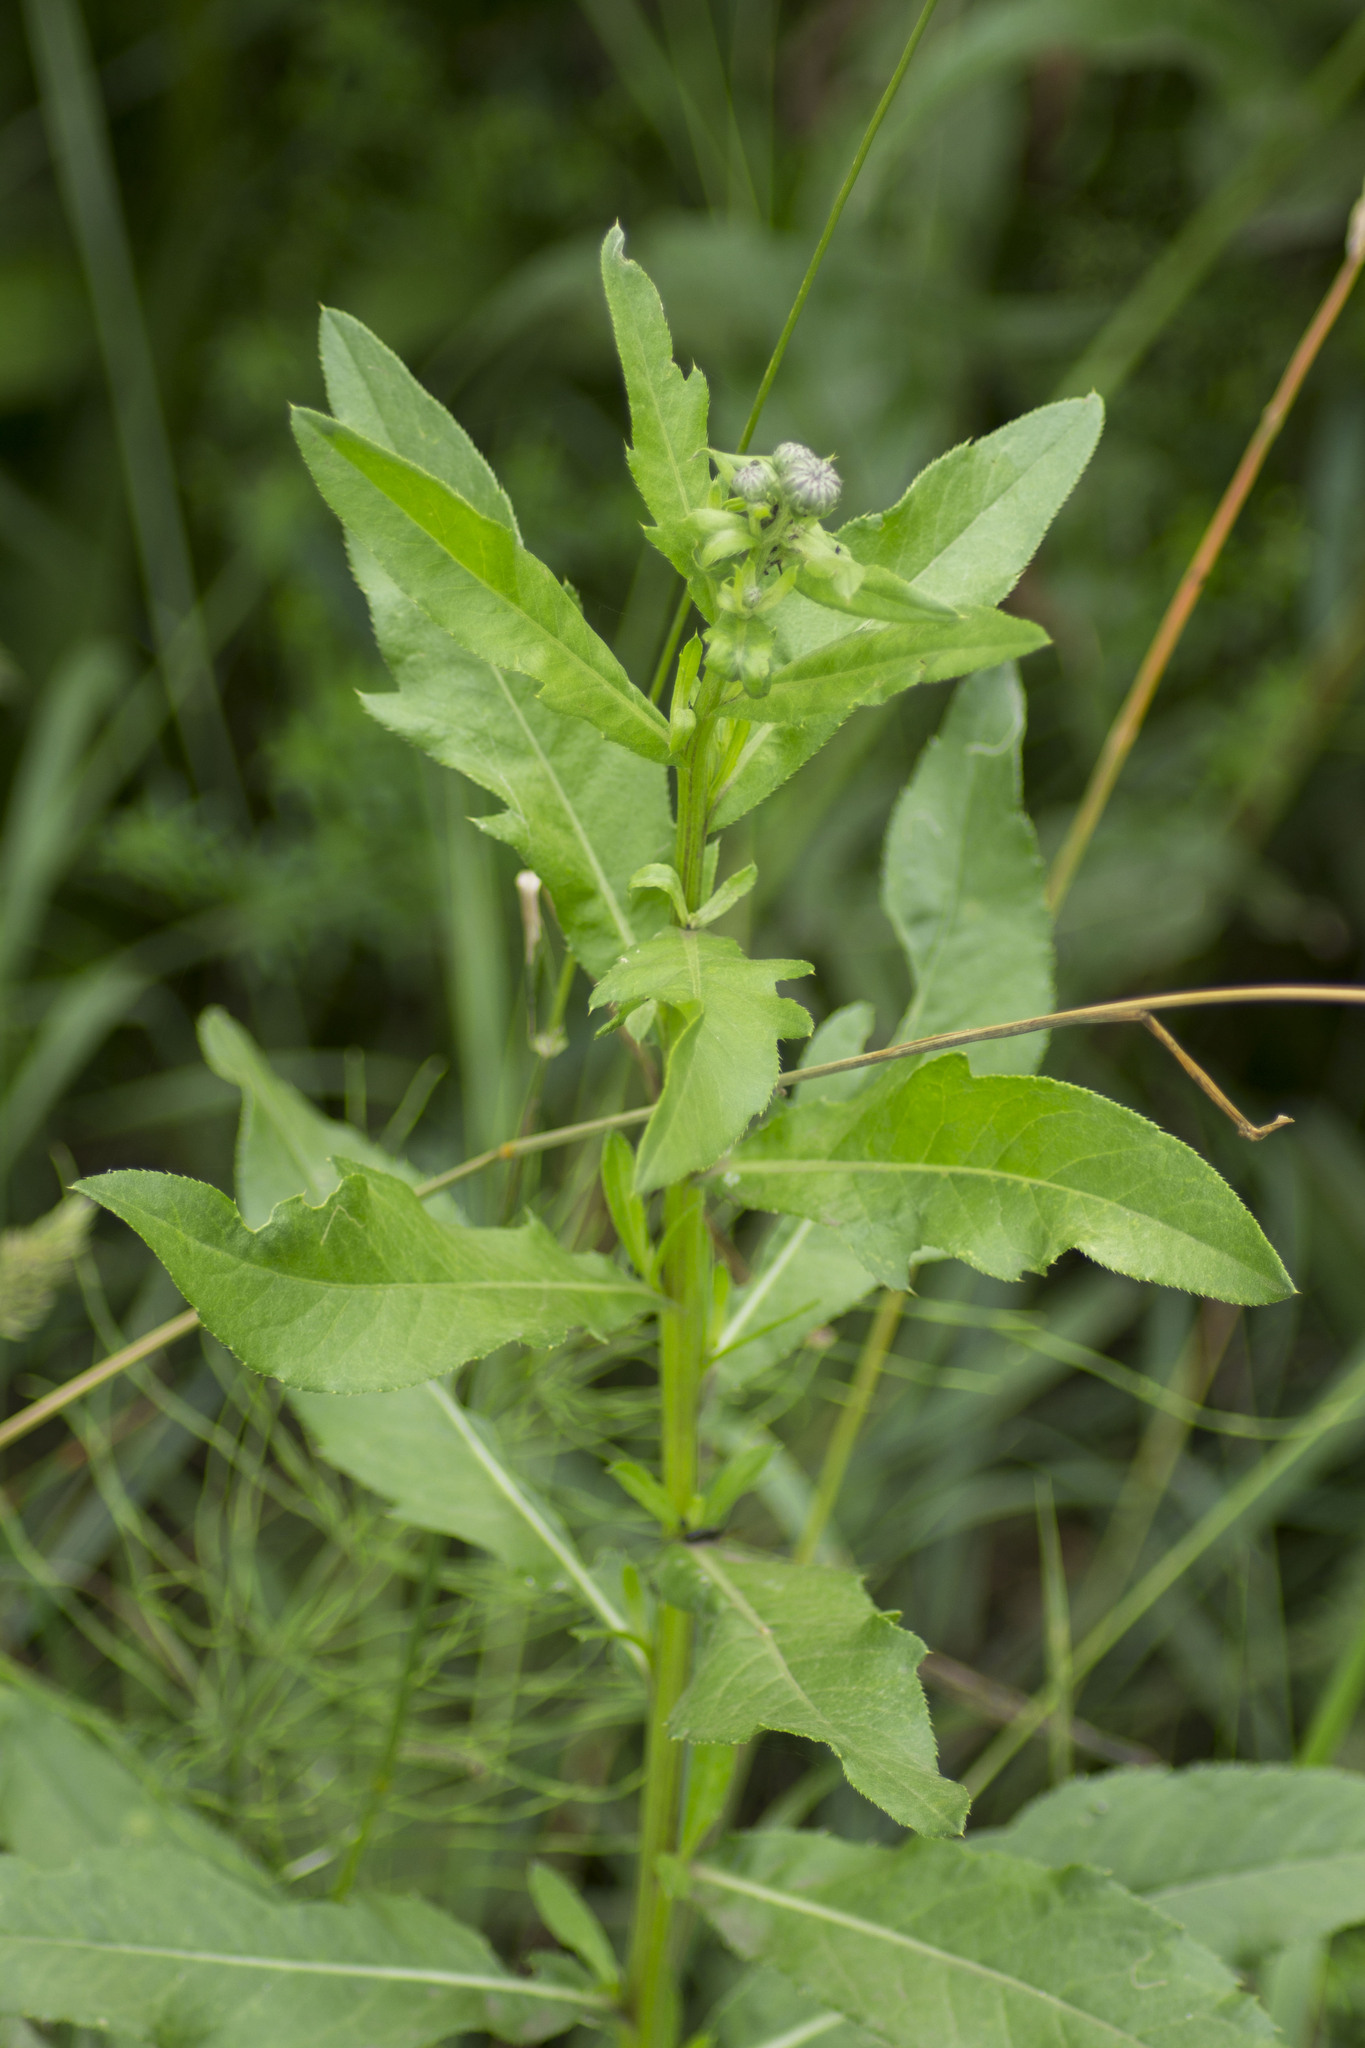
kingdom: Plantae
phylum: Tracheophyta
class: Magnoliopsida
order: Asterales
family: Asteraceae
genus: Cirsium
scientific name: Cirsium arvense
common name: Creeping thistle
